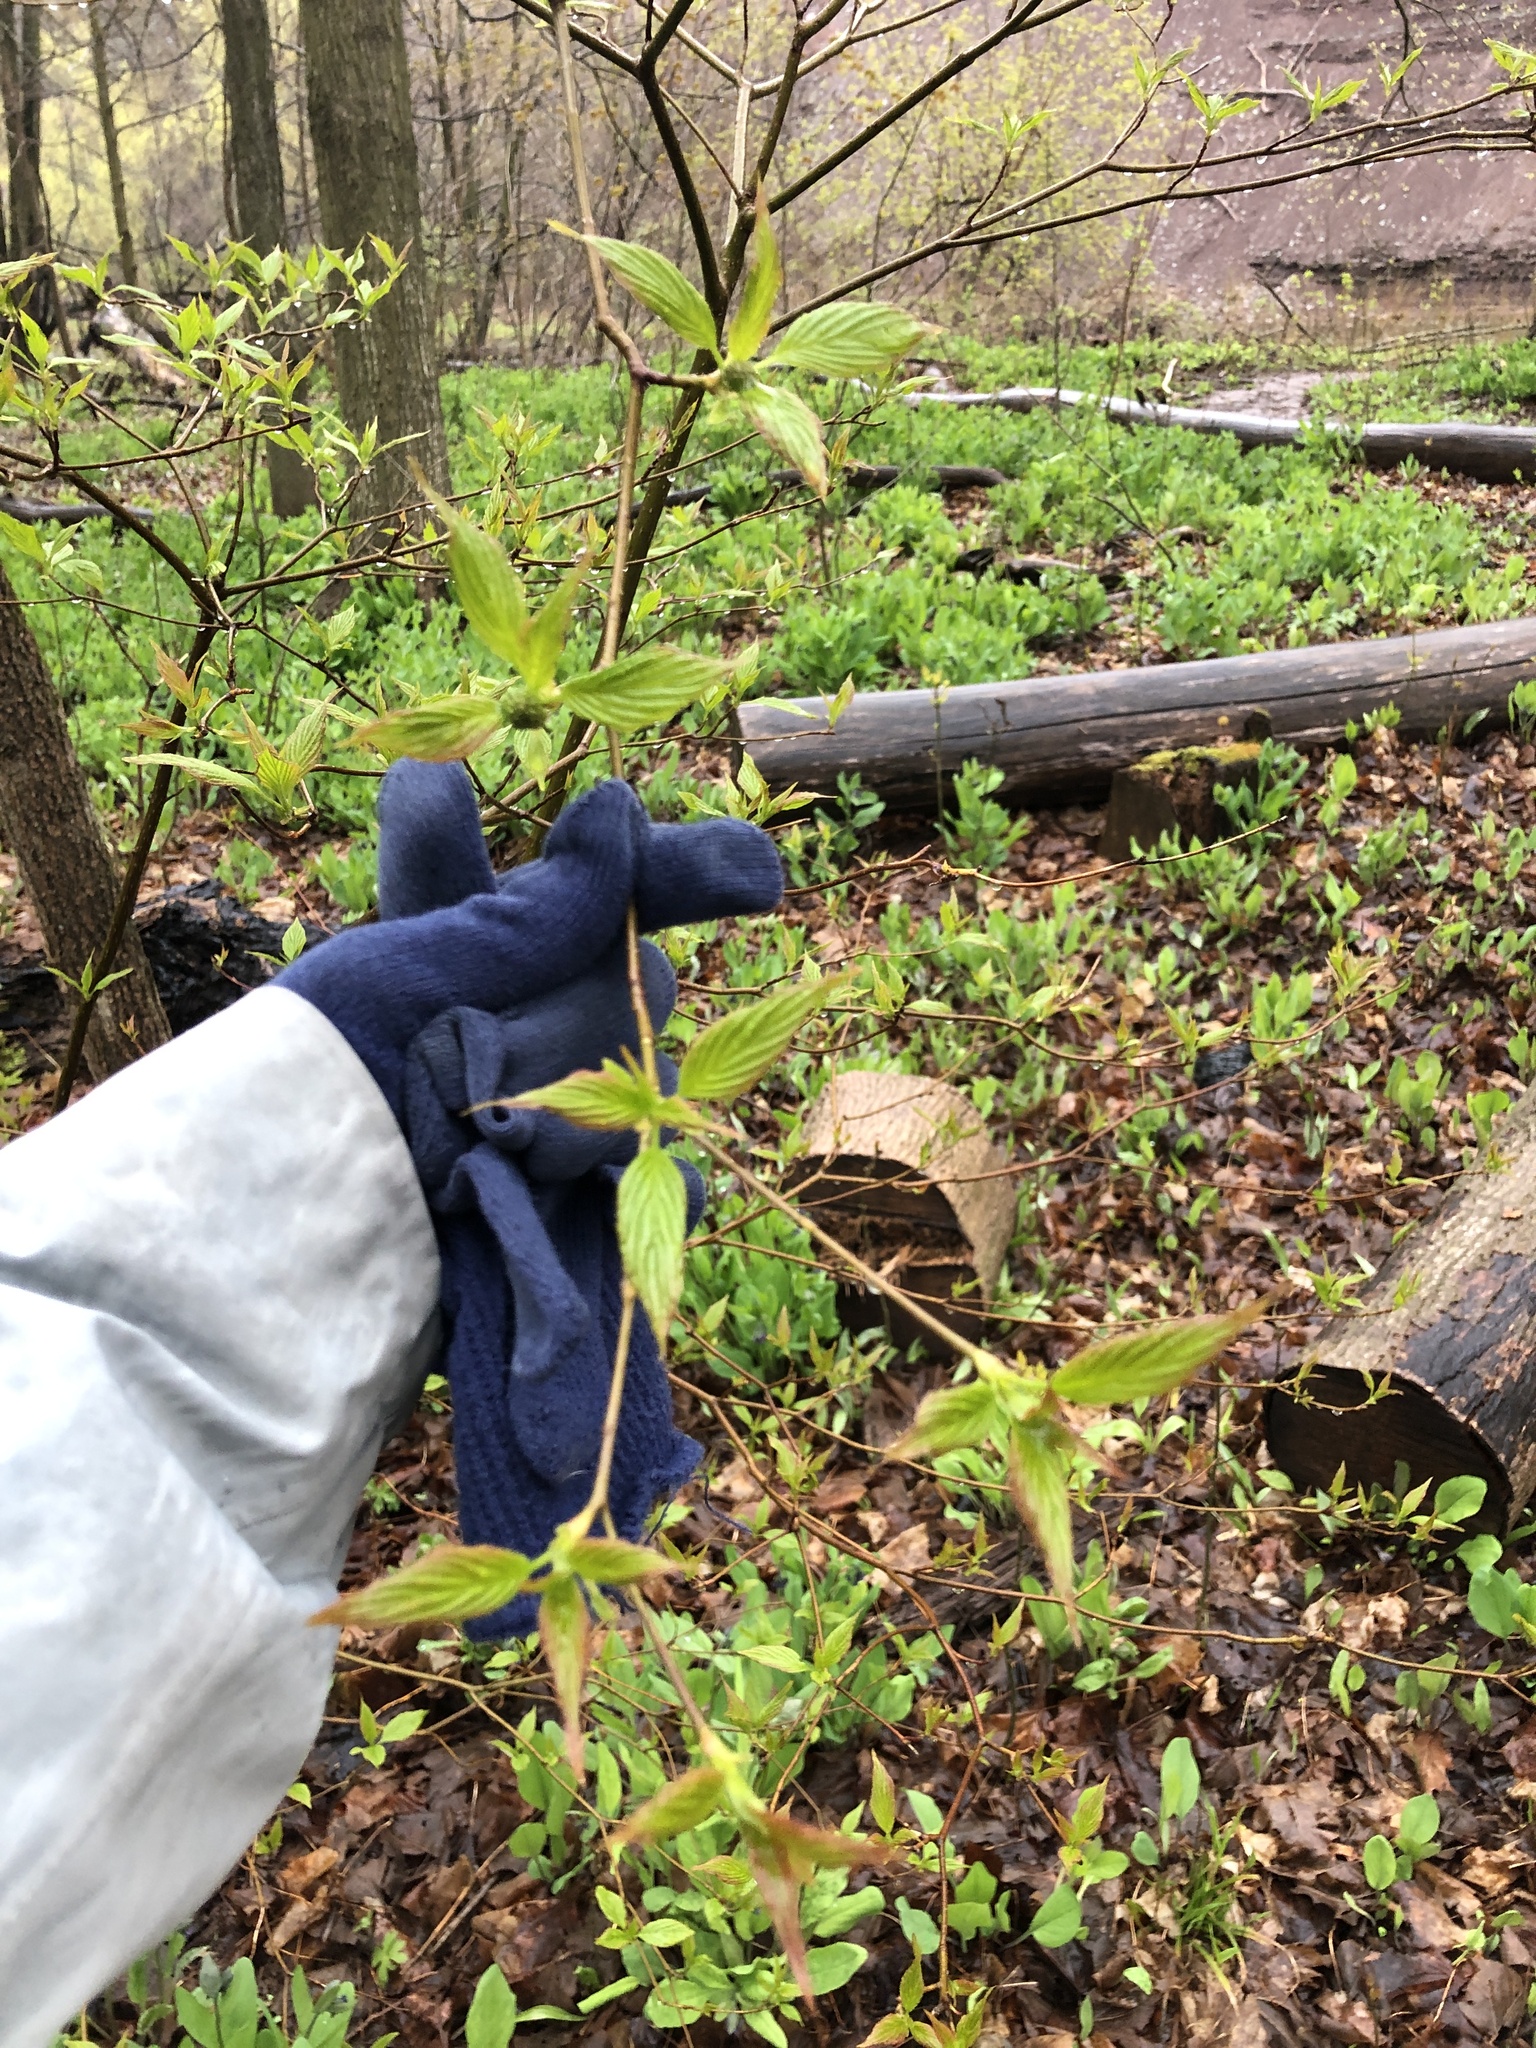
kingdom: Plantae
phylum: Tracheophyta
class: Magnoliopsida
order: Cornales
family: Cornaceae
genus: Cornus
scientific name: Cornus alternifolia
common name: Pagoda dogwood
